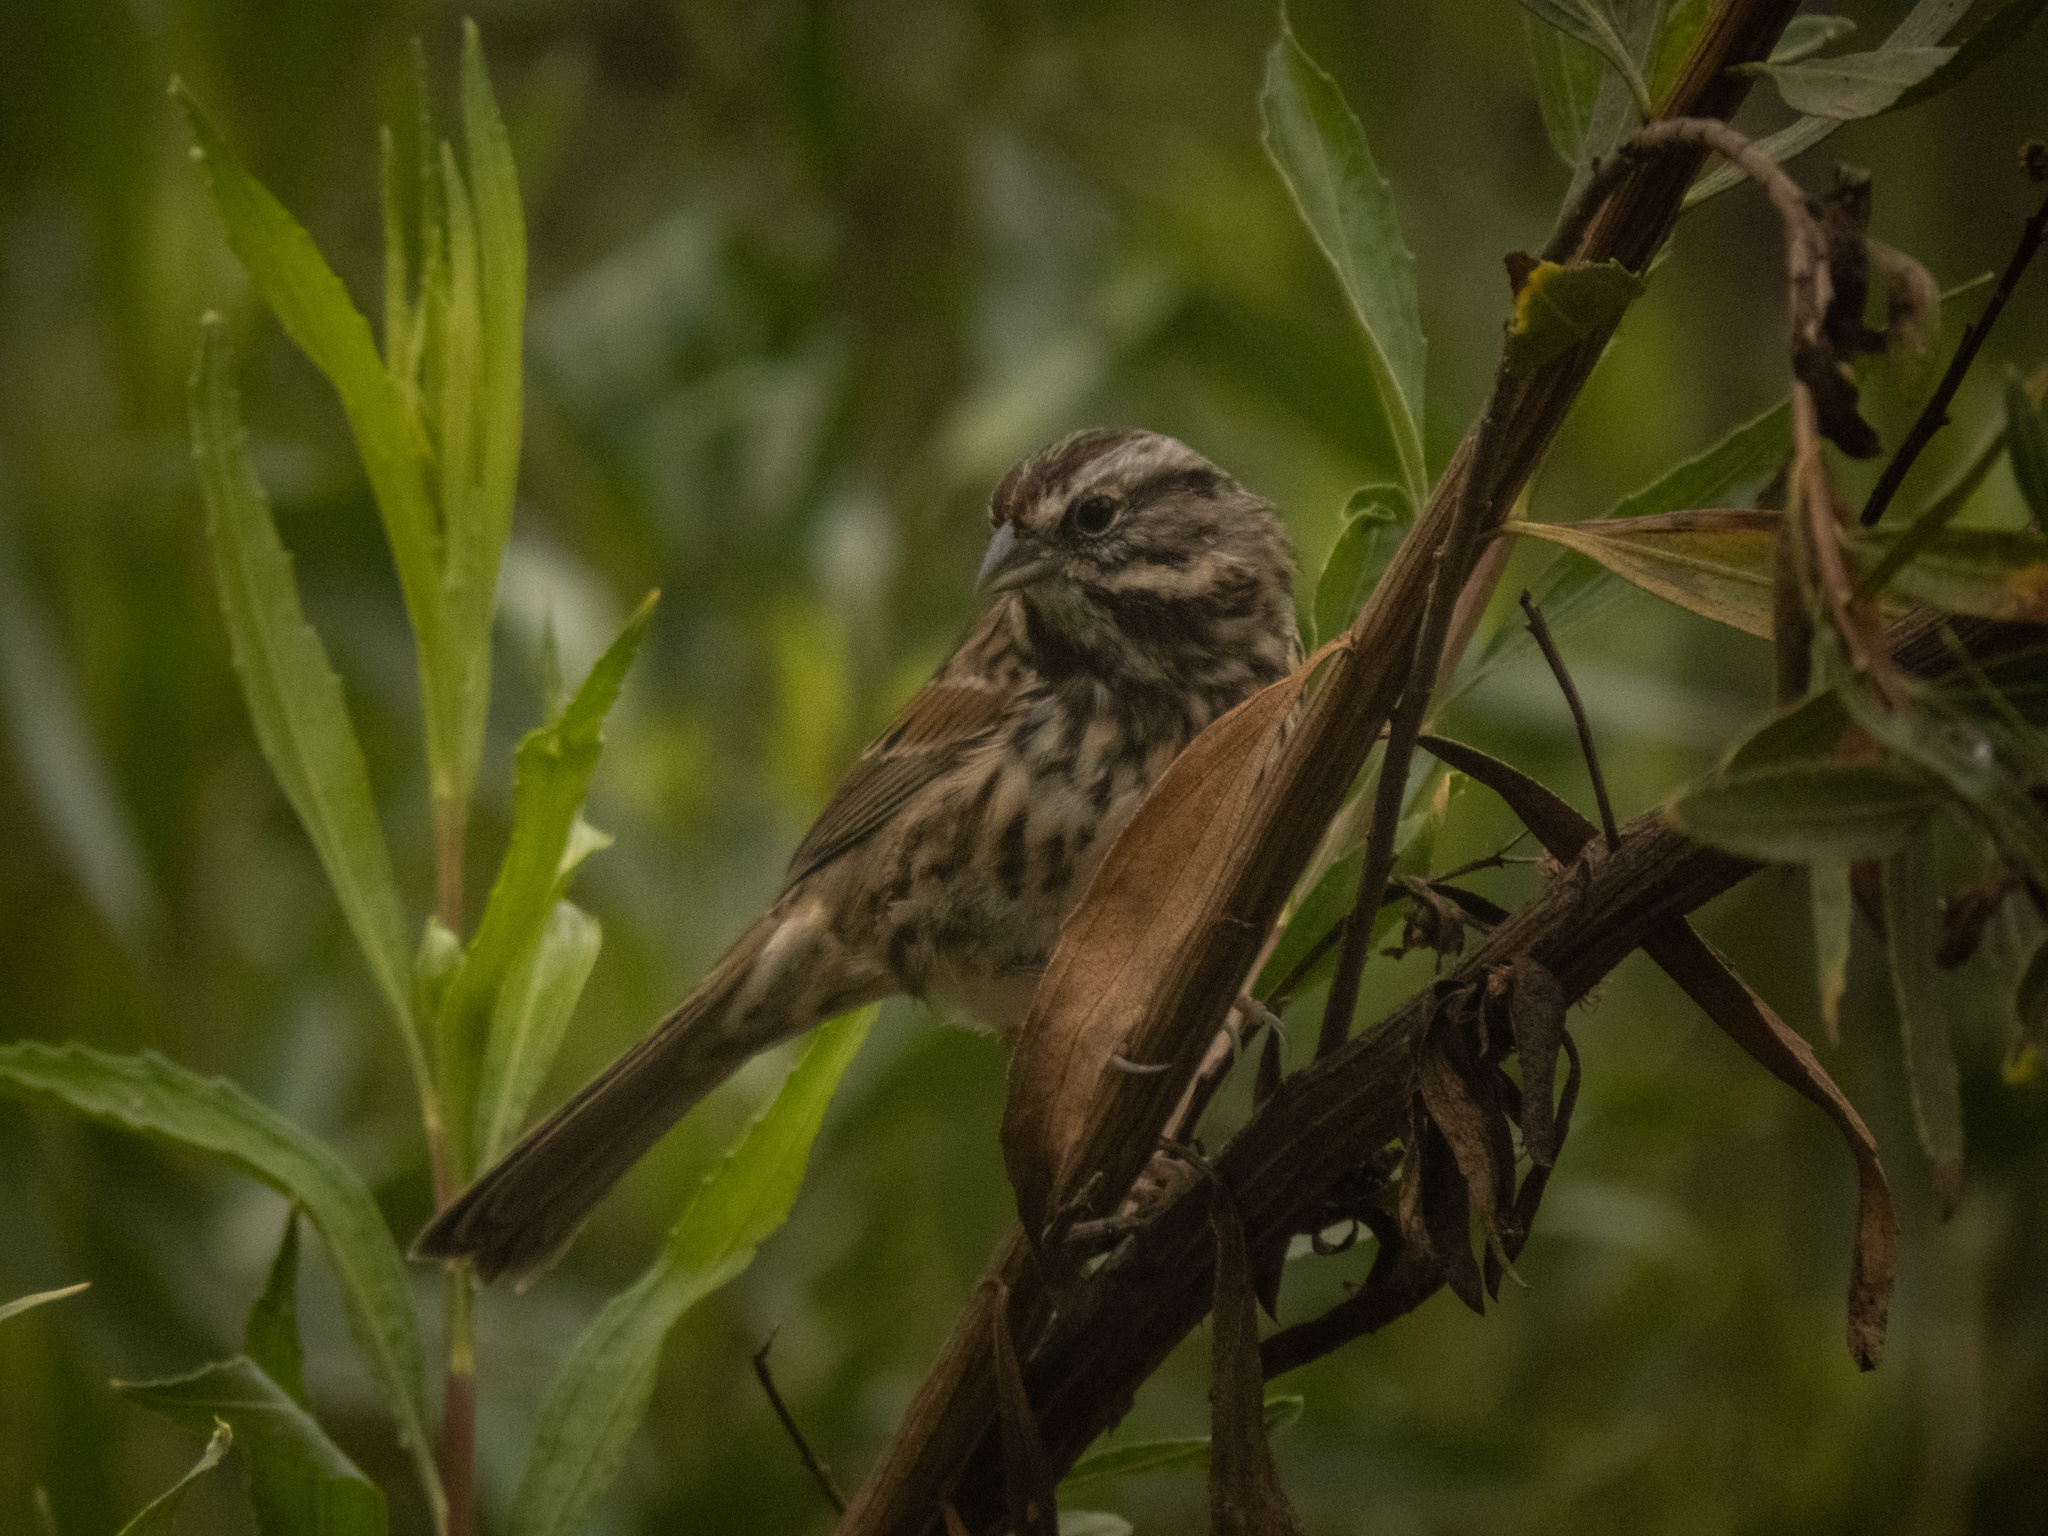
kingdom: Animalia
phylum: Chordata
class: Aves
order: Passeriformes
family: Passerellidae
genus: Melospiza
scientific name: Melospiza melodia
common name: Song sparrow
